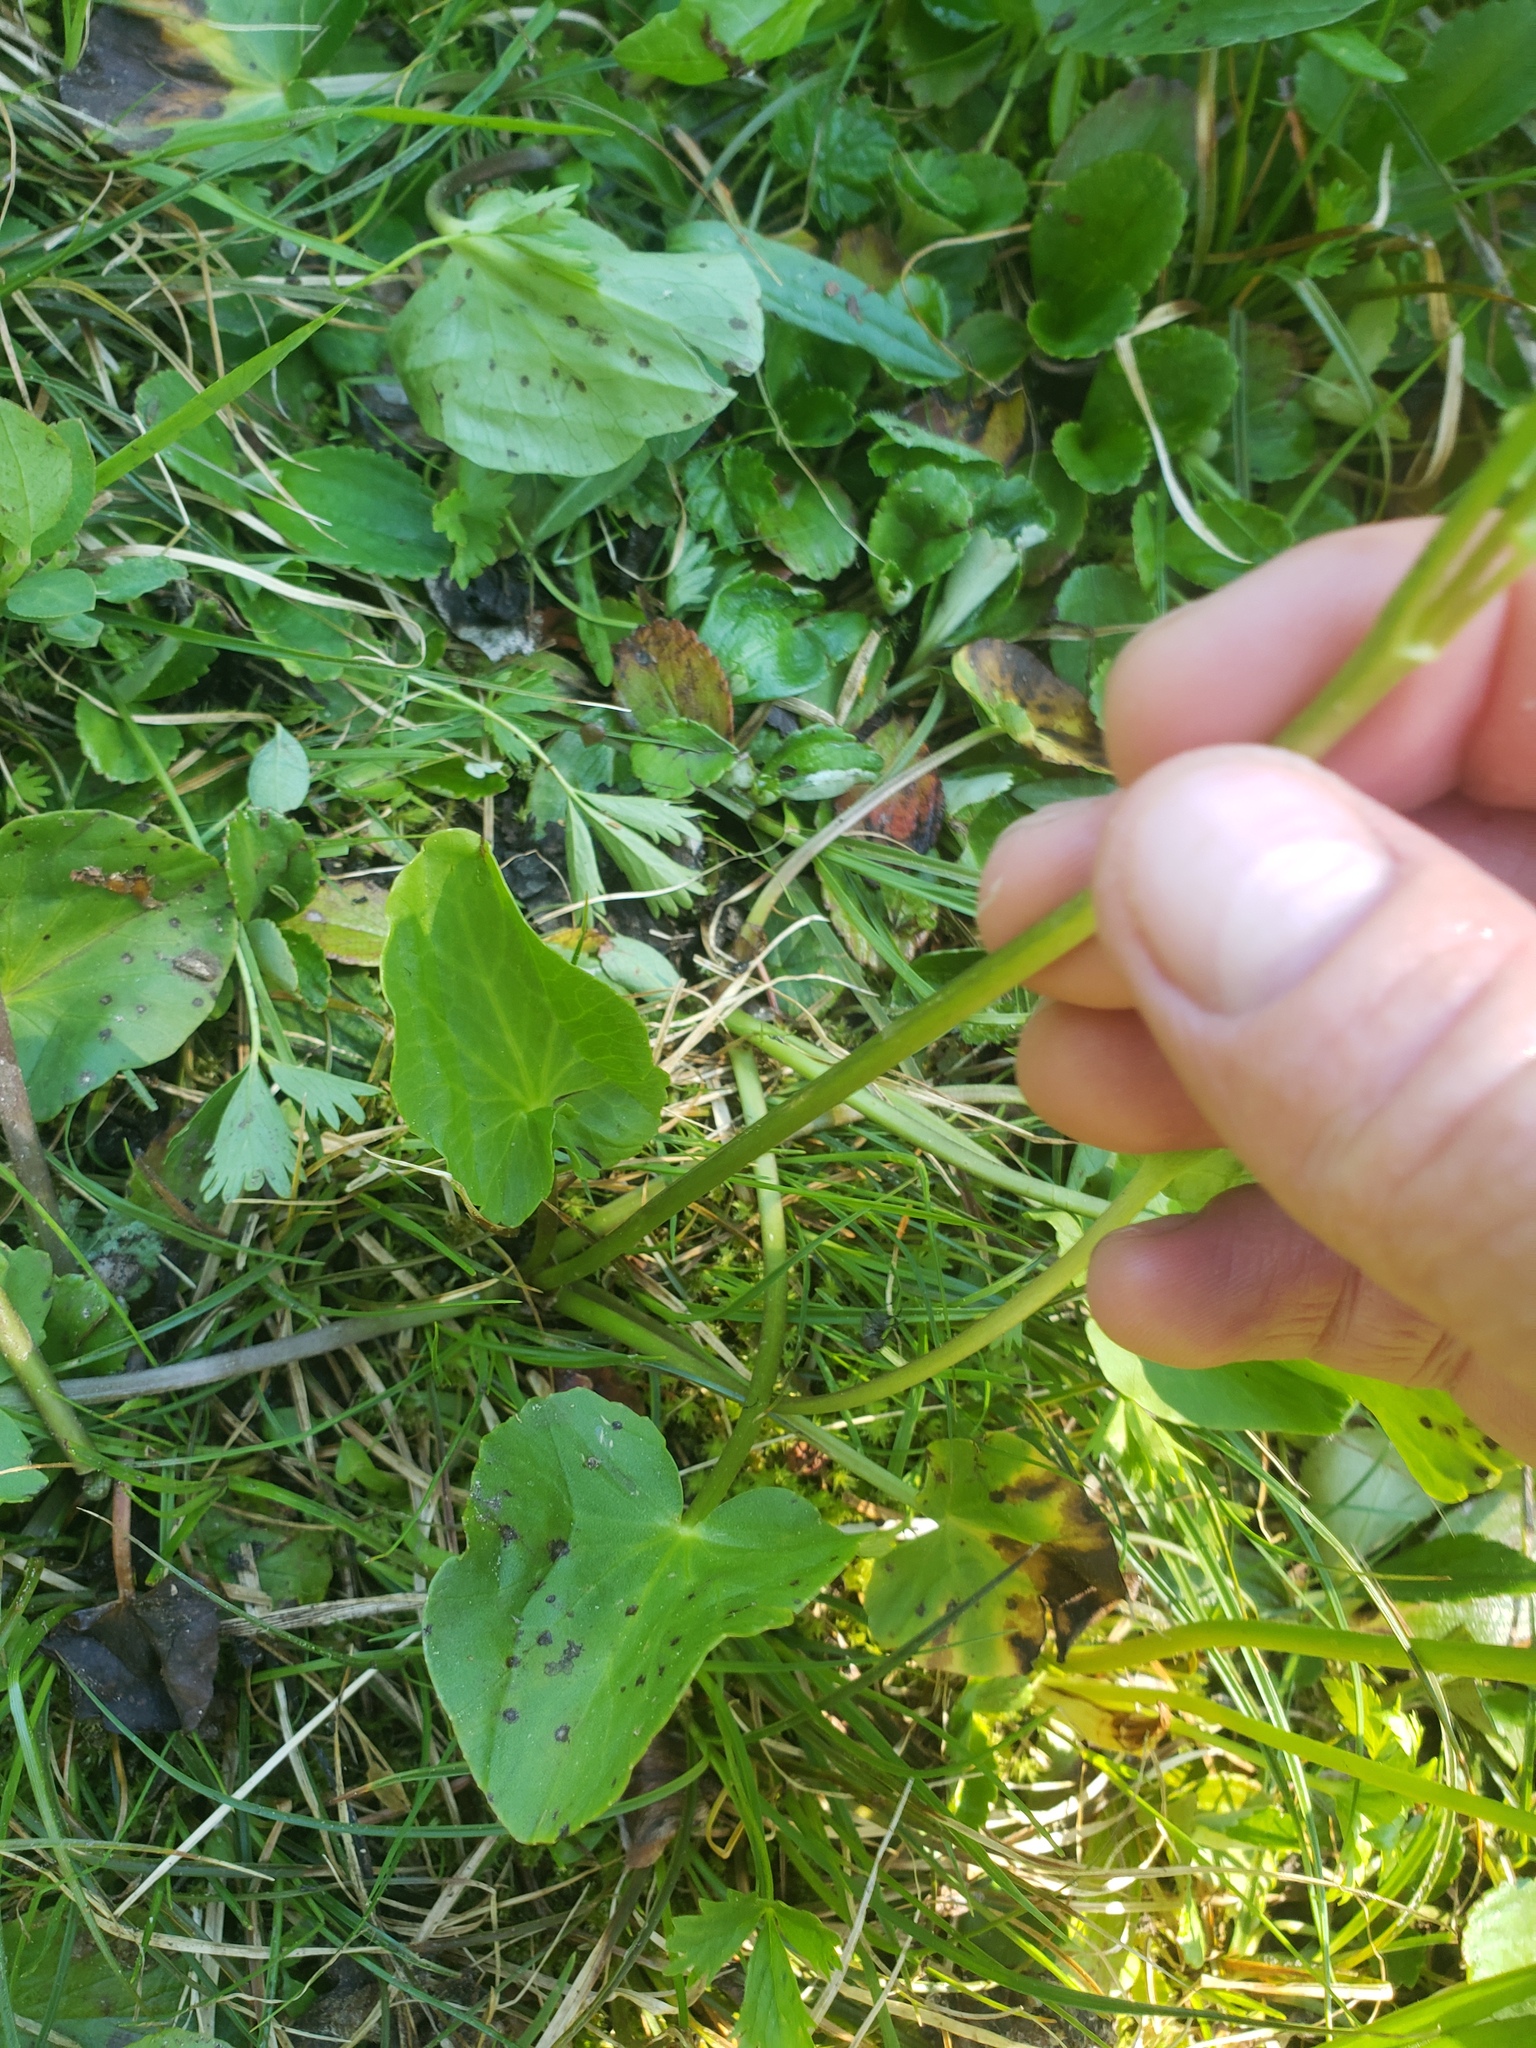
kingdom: Plantae
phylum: Tracheophyta
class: Magnoliopsida
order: Ranunculales
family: Ranunculaceae
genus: Caltha
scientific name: Caltha leptosepala
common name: Elkslip
